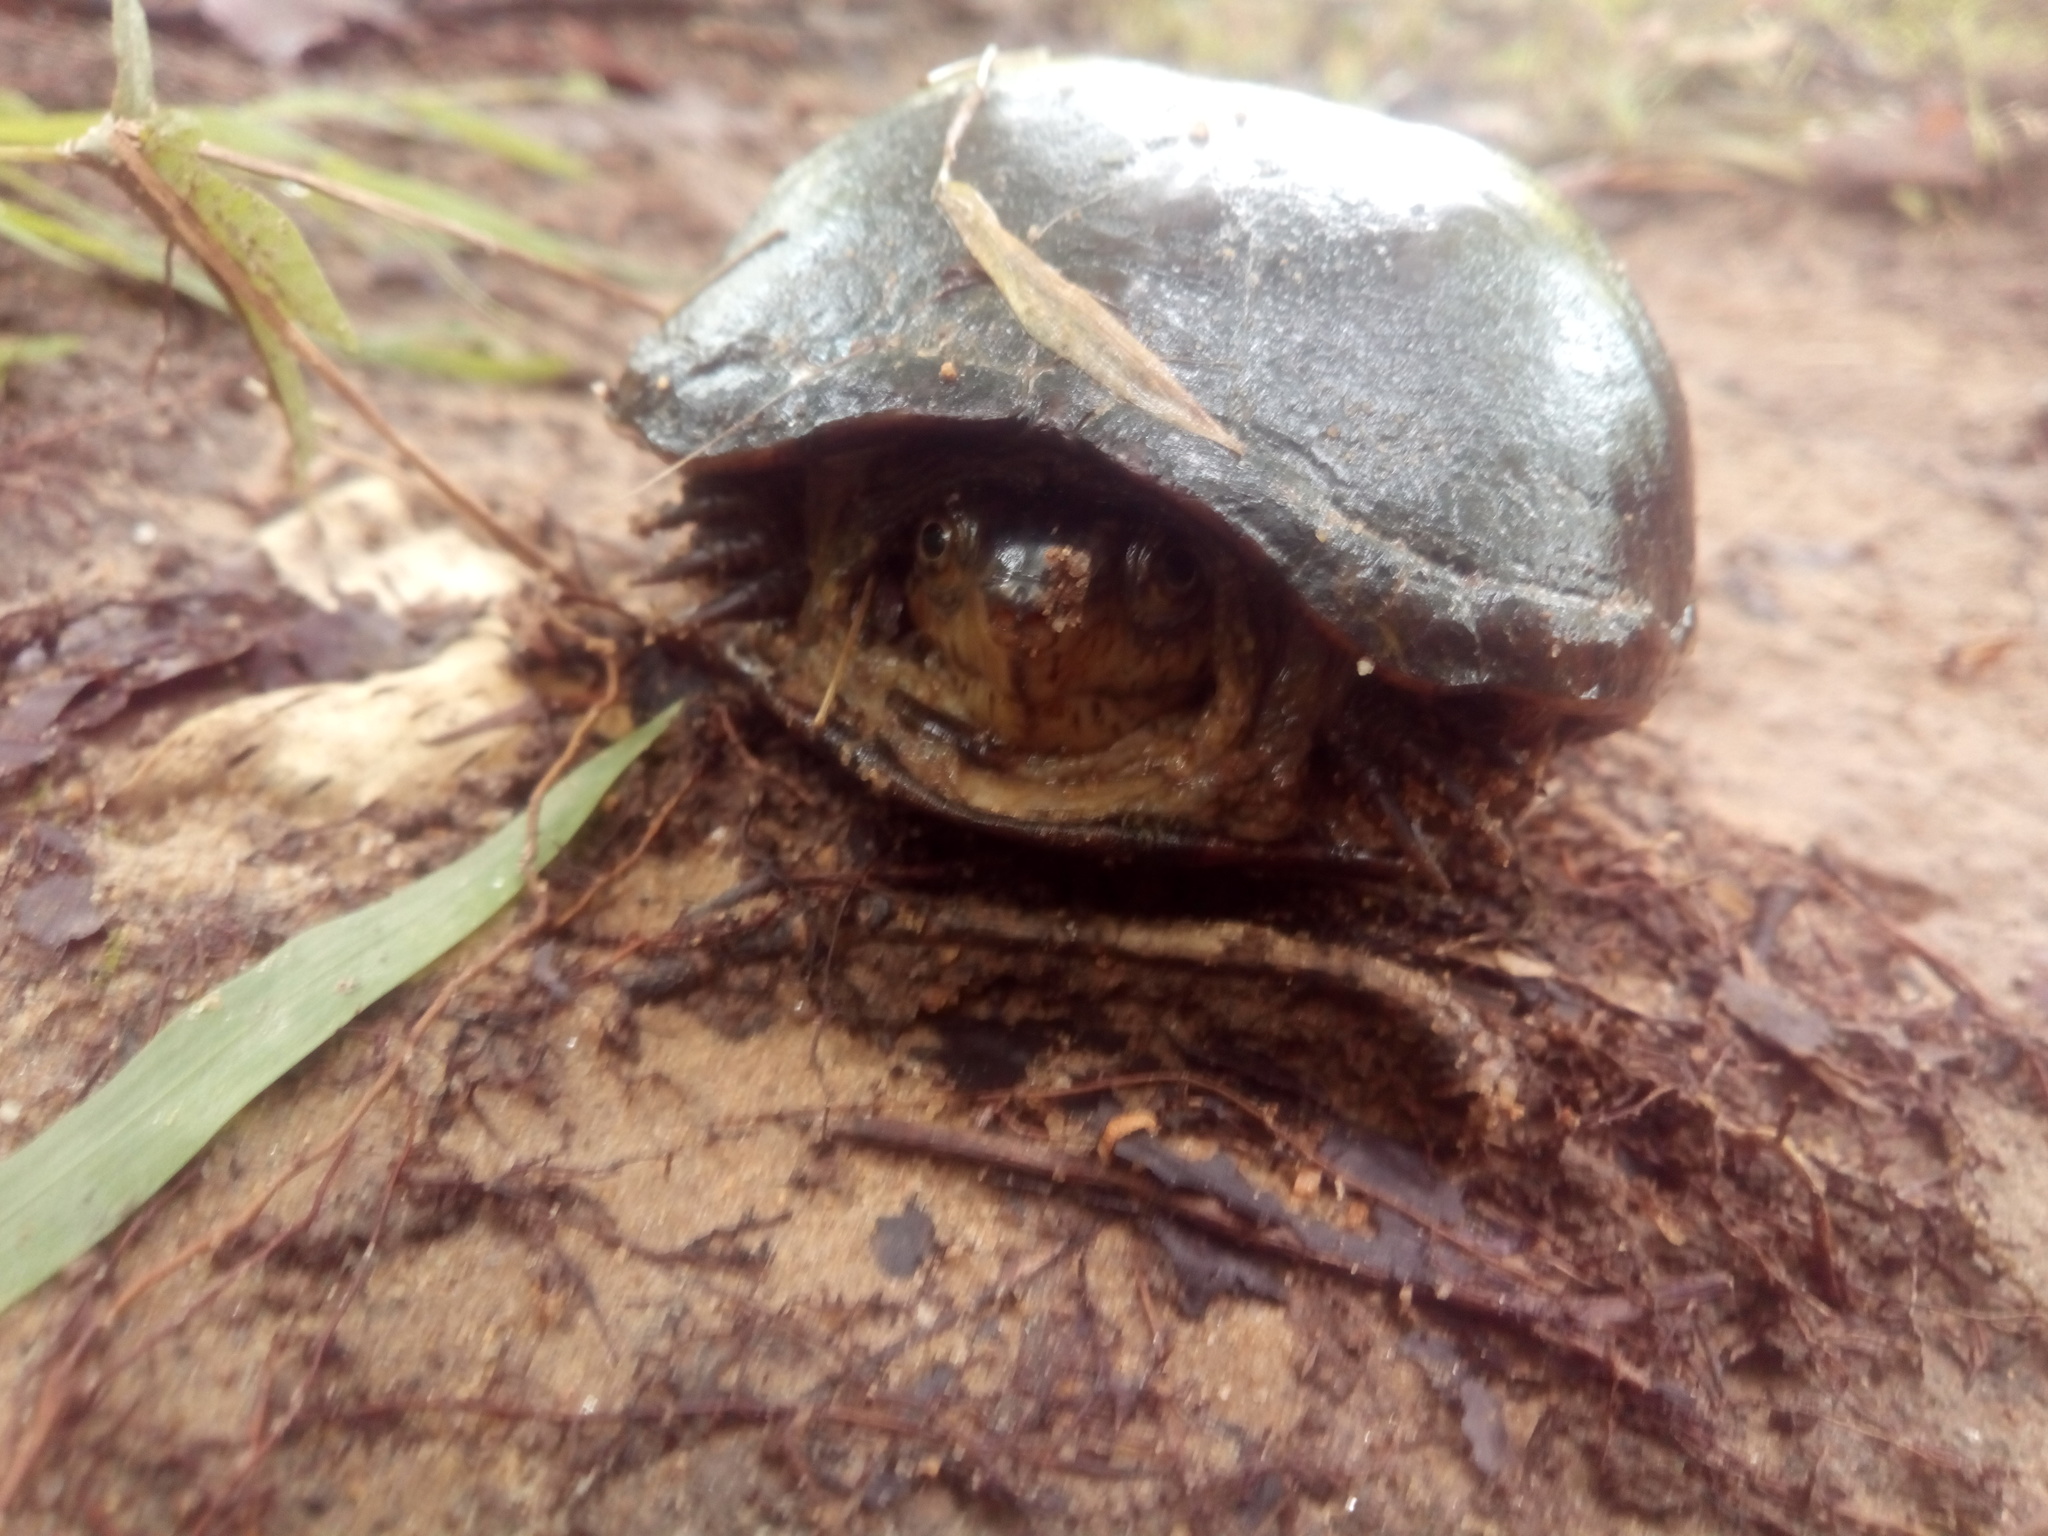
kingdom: Animalia
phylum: Chordata
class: Testudines
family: Kinosternidae
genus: Kinosternon
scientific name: Kinosternon subrubrum
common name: Eastern mud turtle
